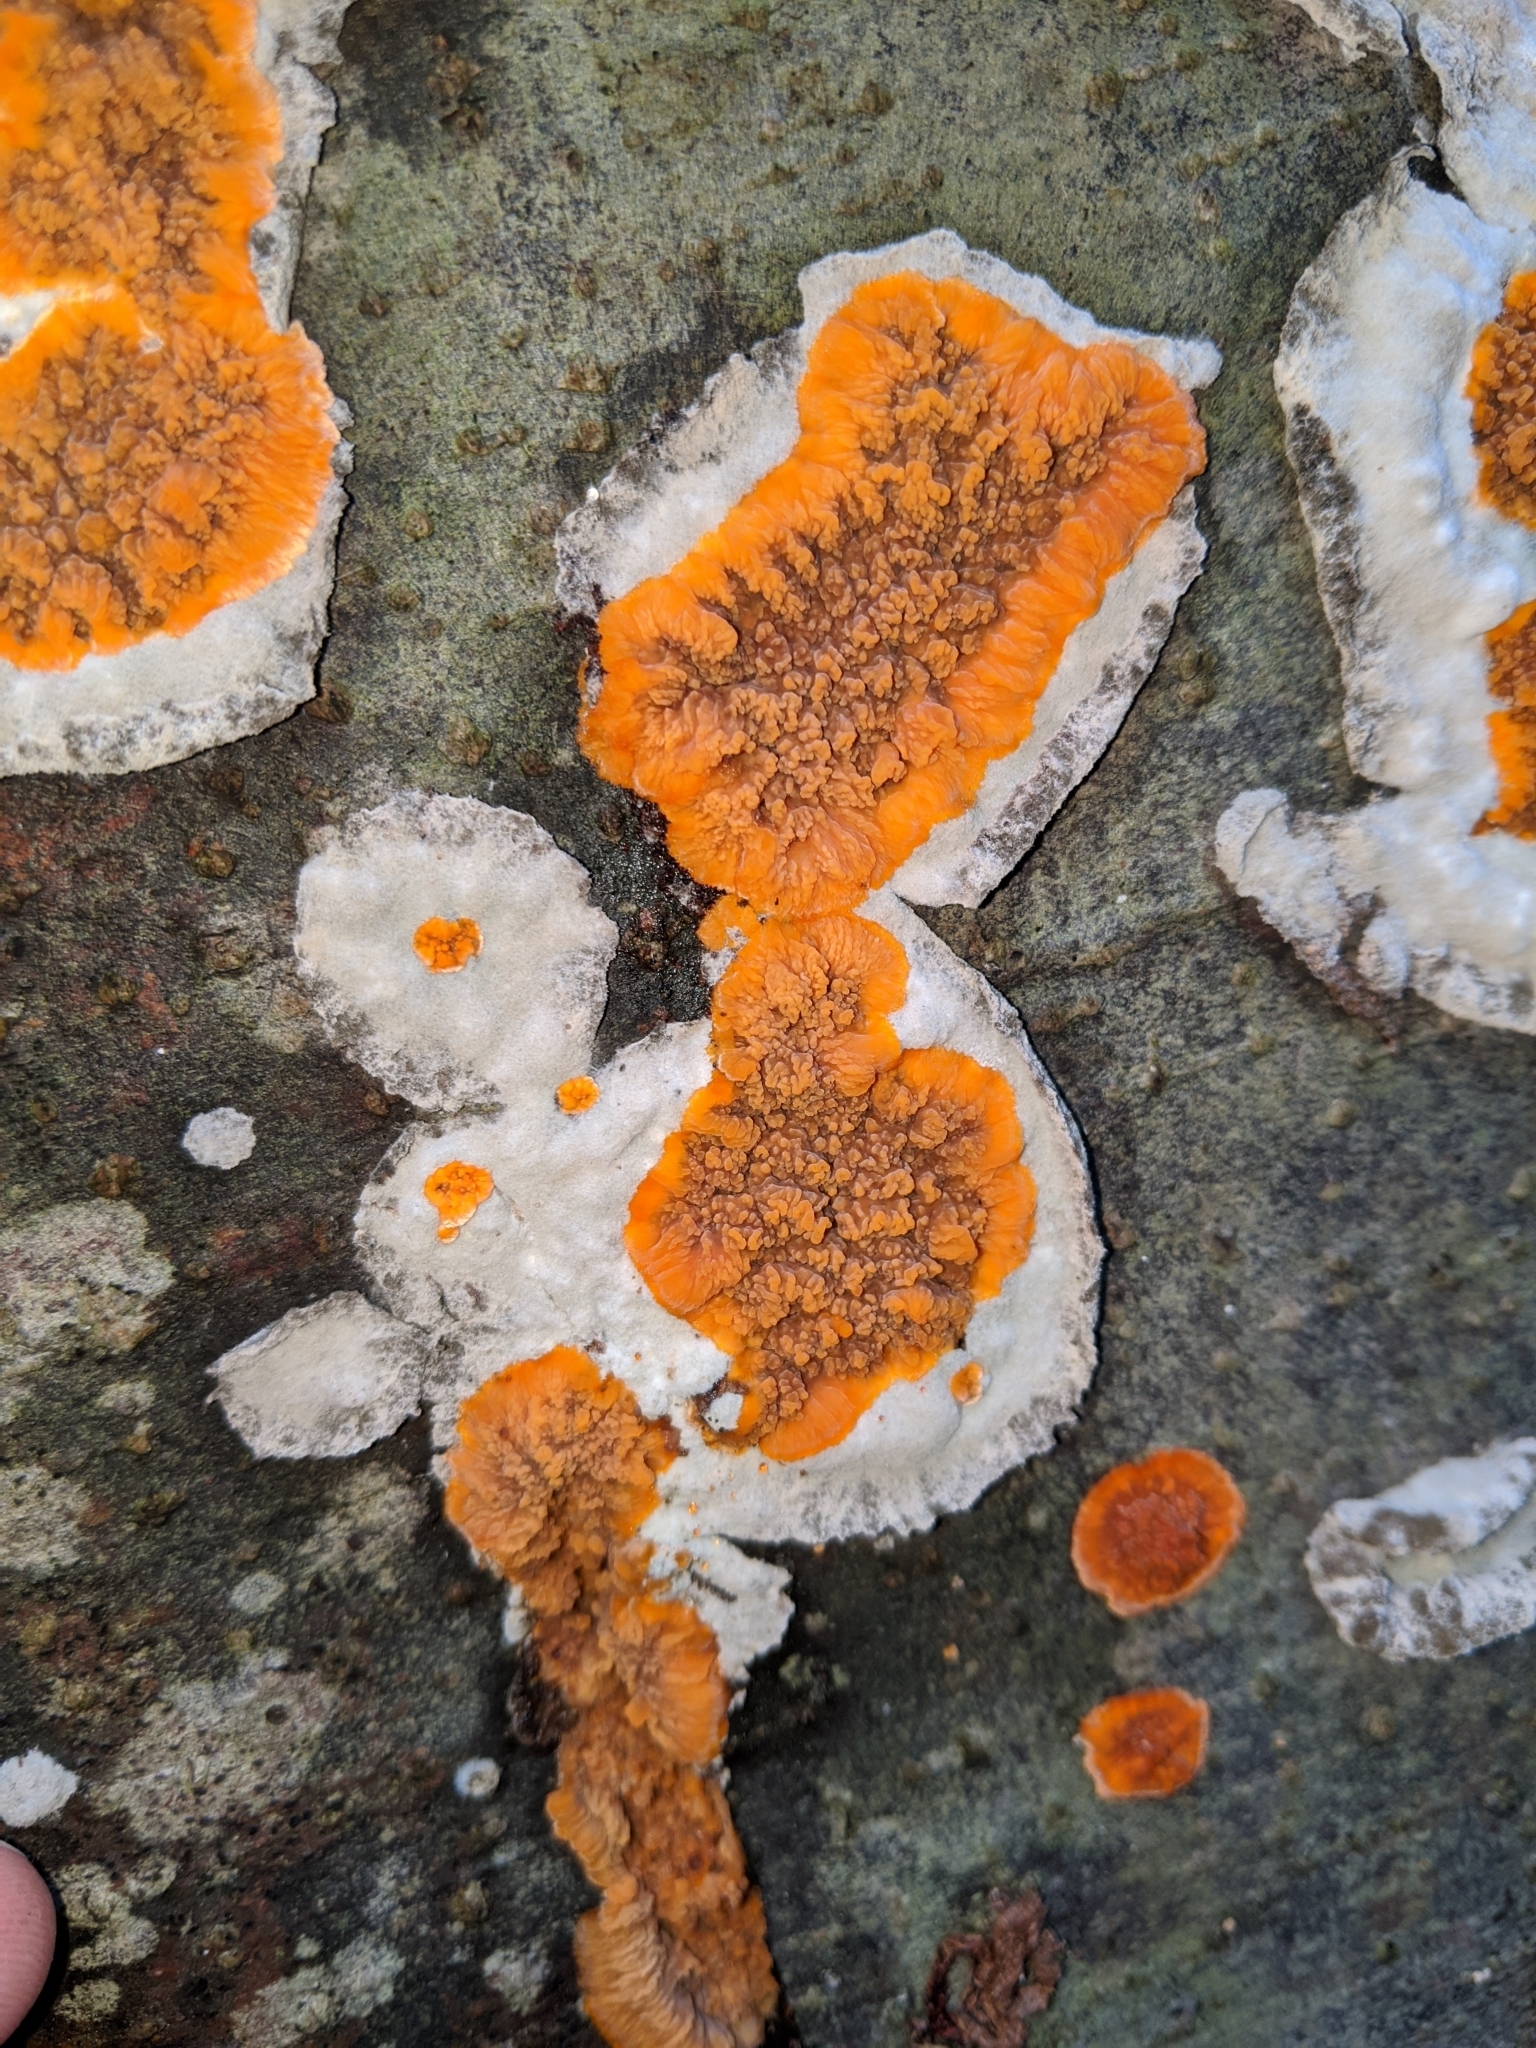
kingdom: Fungi
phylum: Basidiomycota
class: Agaricomycetes
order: Polyporales
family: Meruliaceae
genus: Phlebia
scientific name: Phlebia radiata
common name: Wrinkled crust
